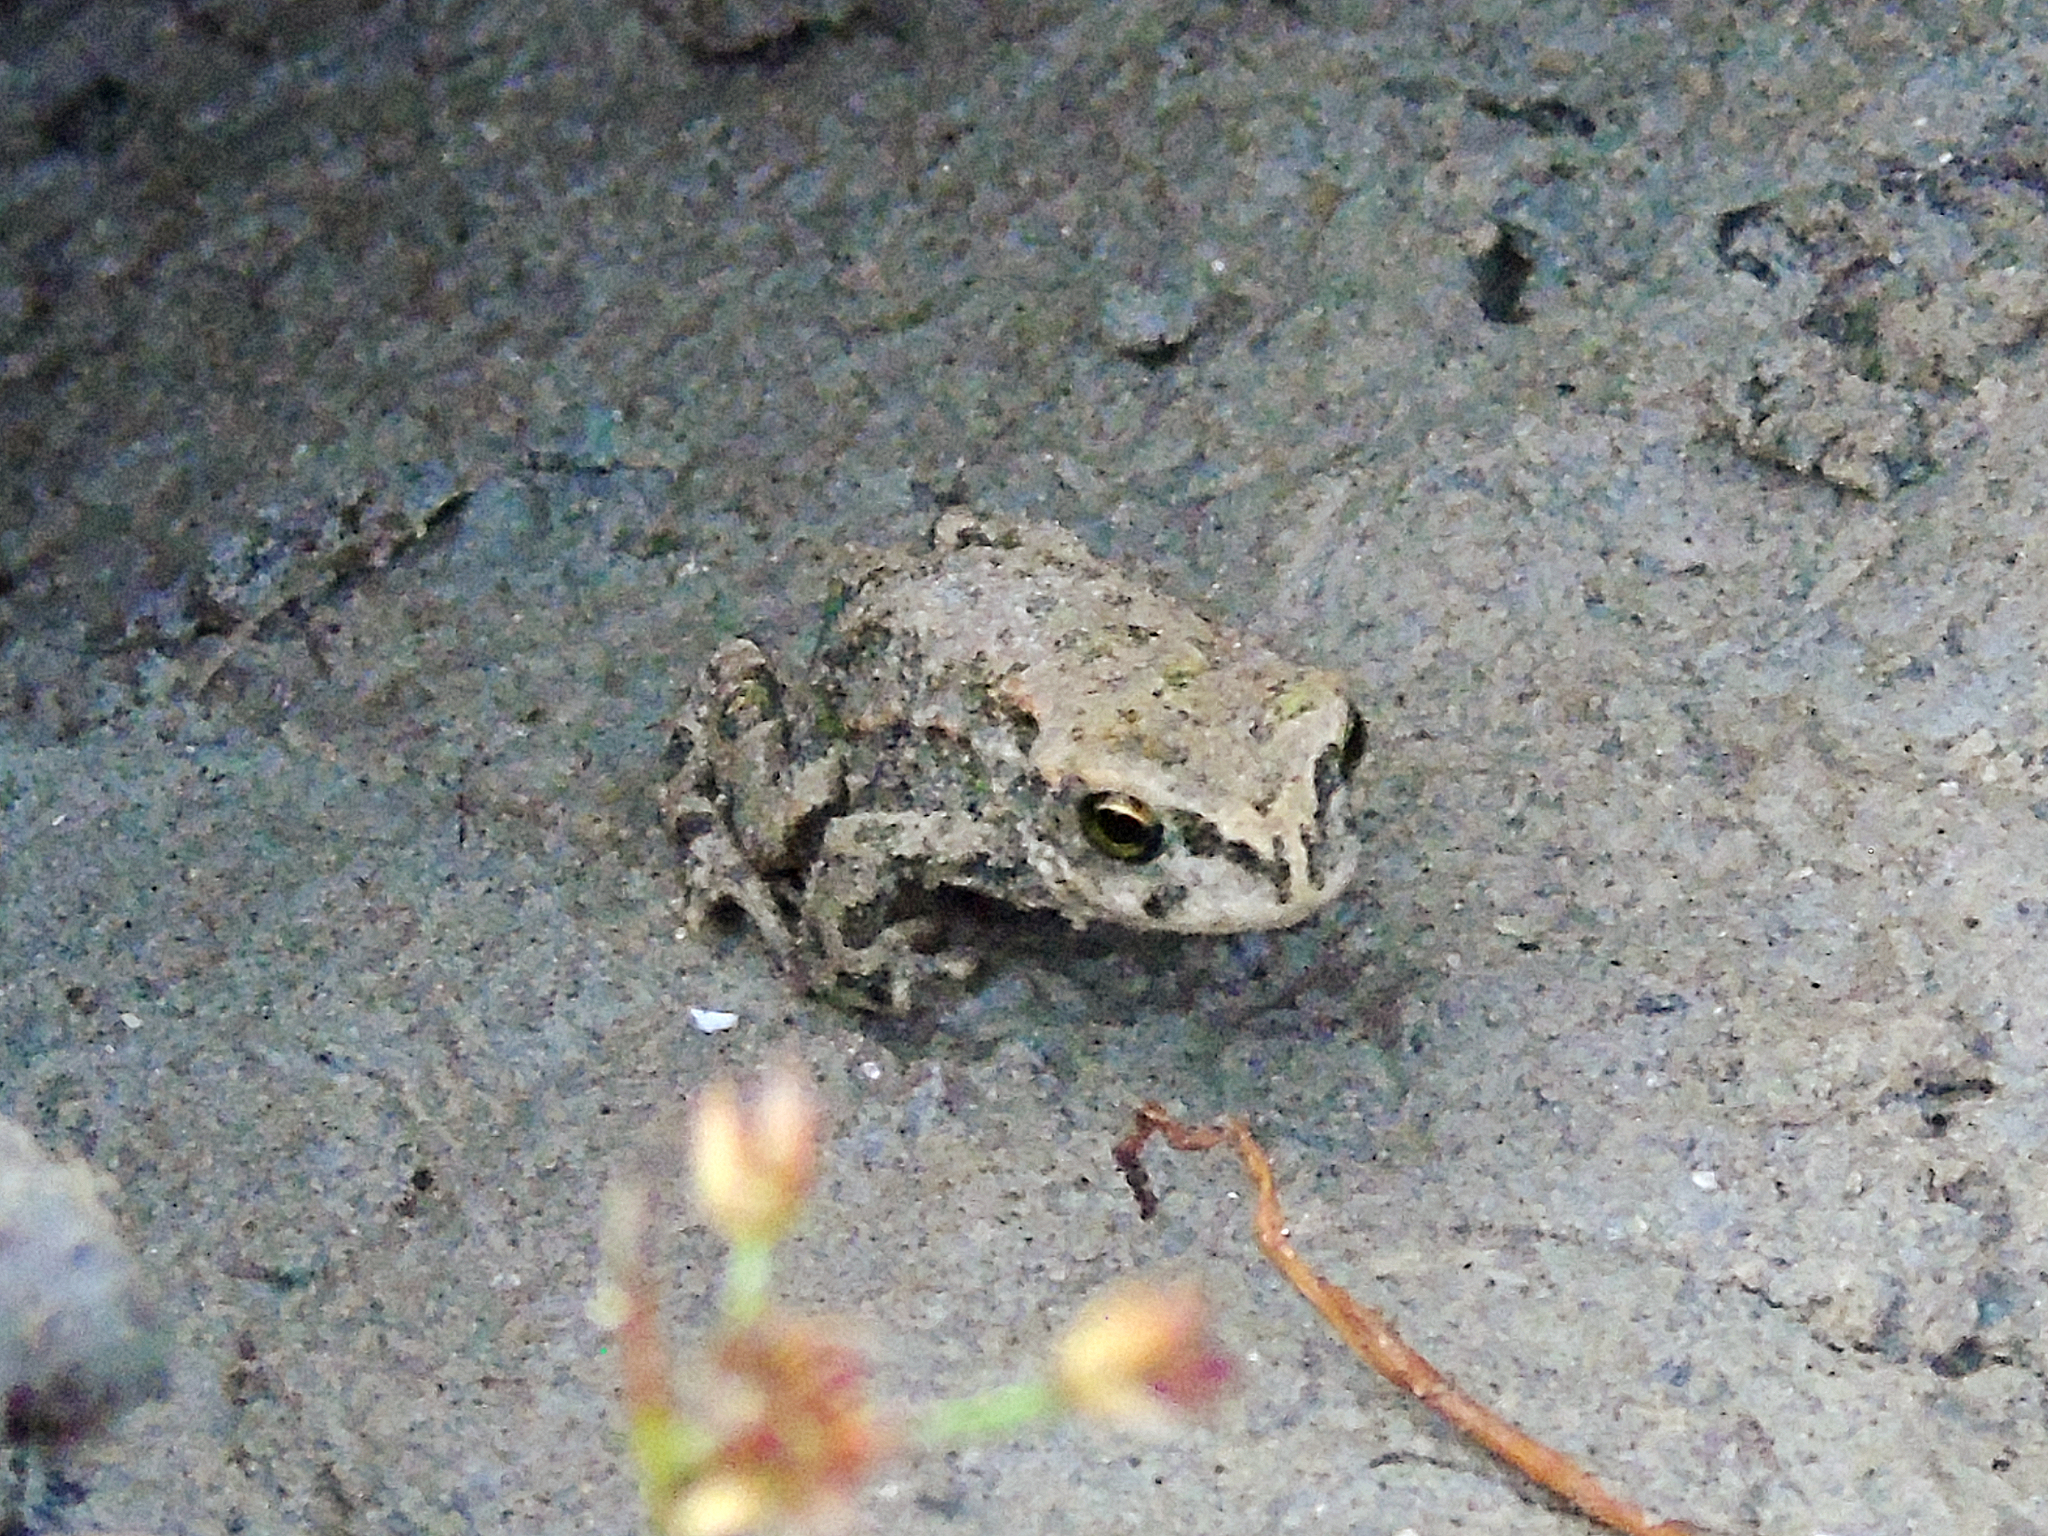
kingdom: Animalia
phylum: Chordata
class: Amphibia
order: Anura
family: Bufonidae
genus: Bufotes
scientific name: Bufotes latastii
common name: Ladakh toad
